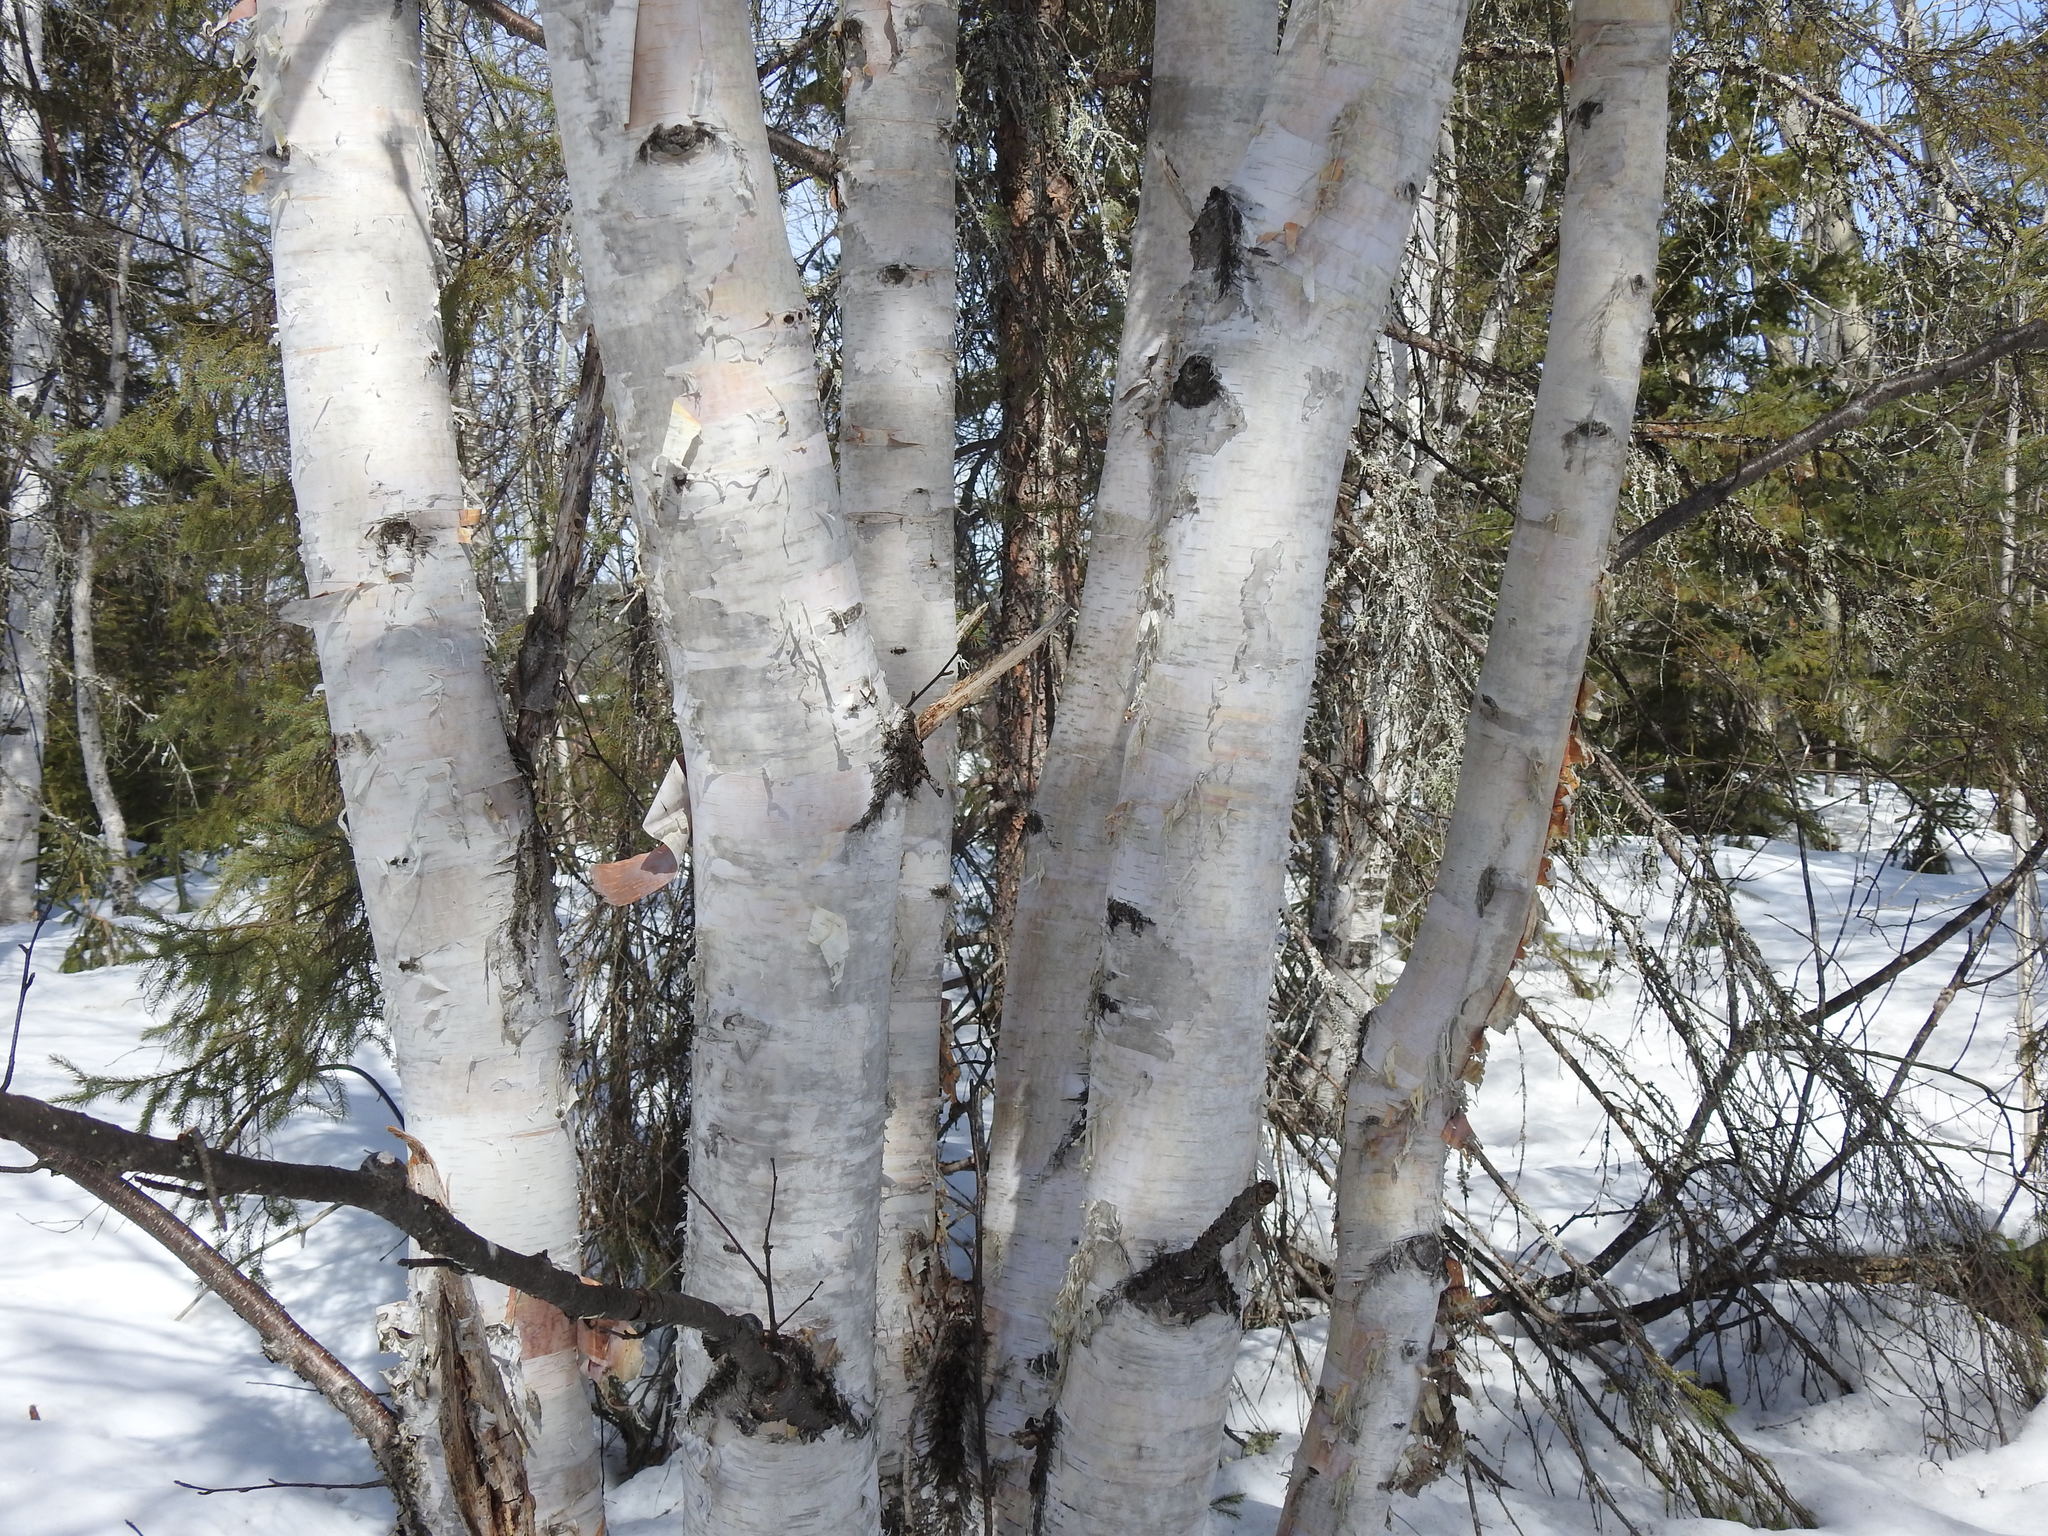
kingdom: Plantae
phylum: Tracheophyta
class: Magnoliopsida
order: Fagales
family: Betulaceae
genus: Betula
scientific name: Betula papyrifera
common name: Paper birch
